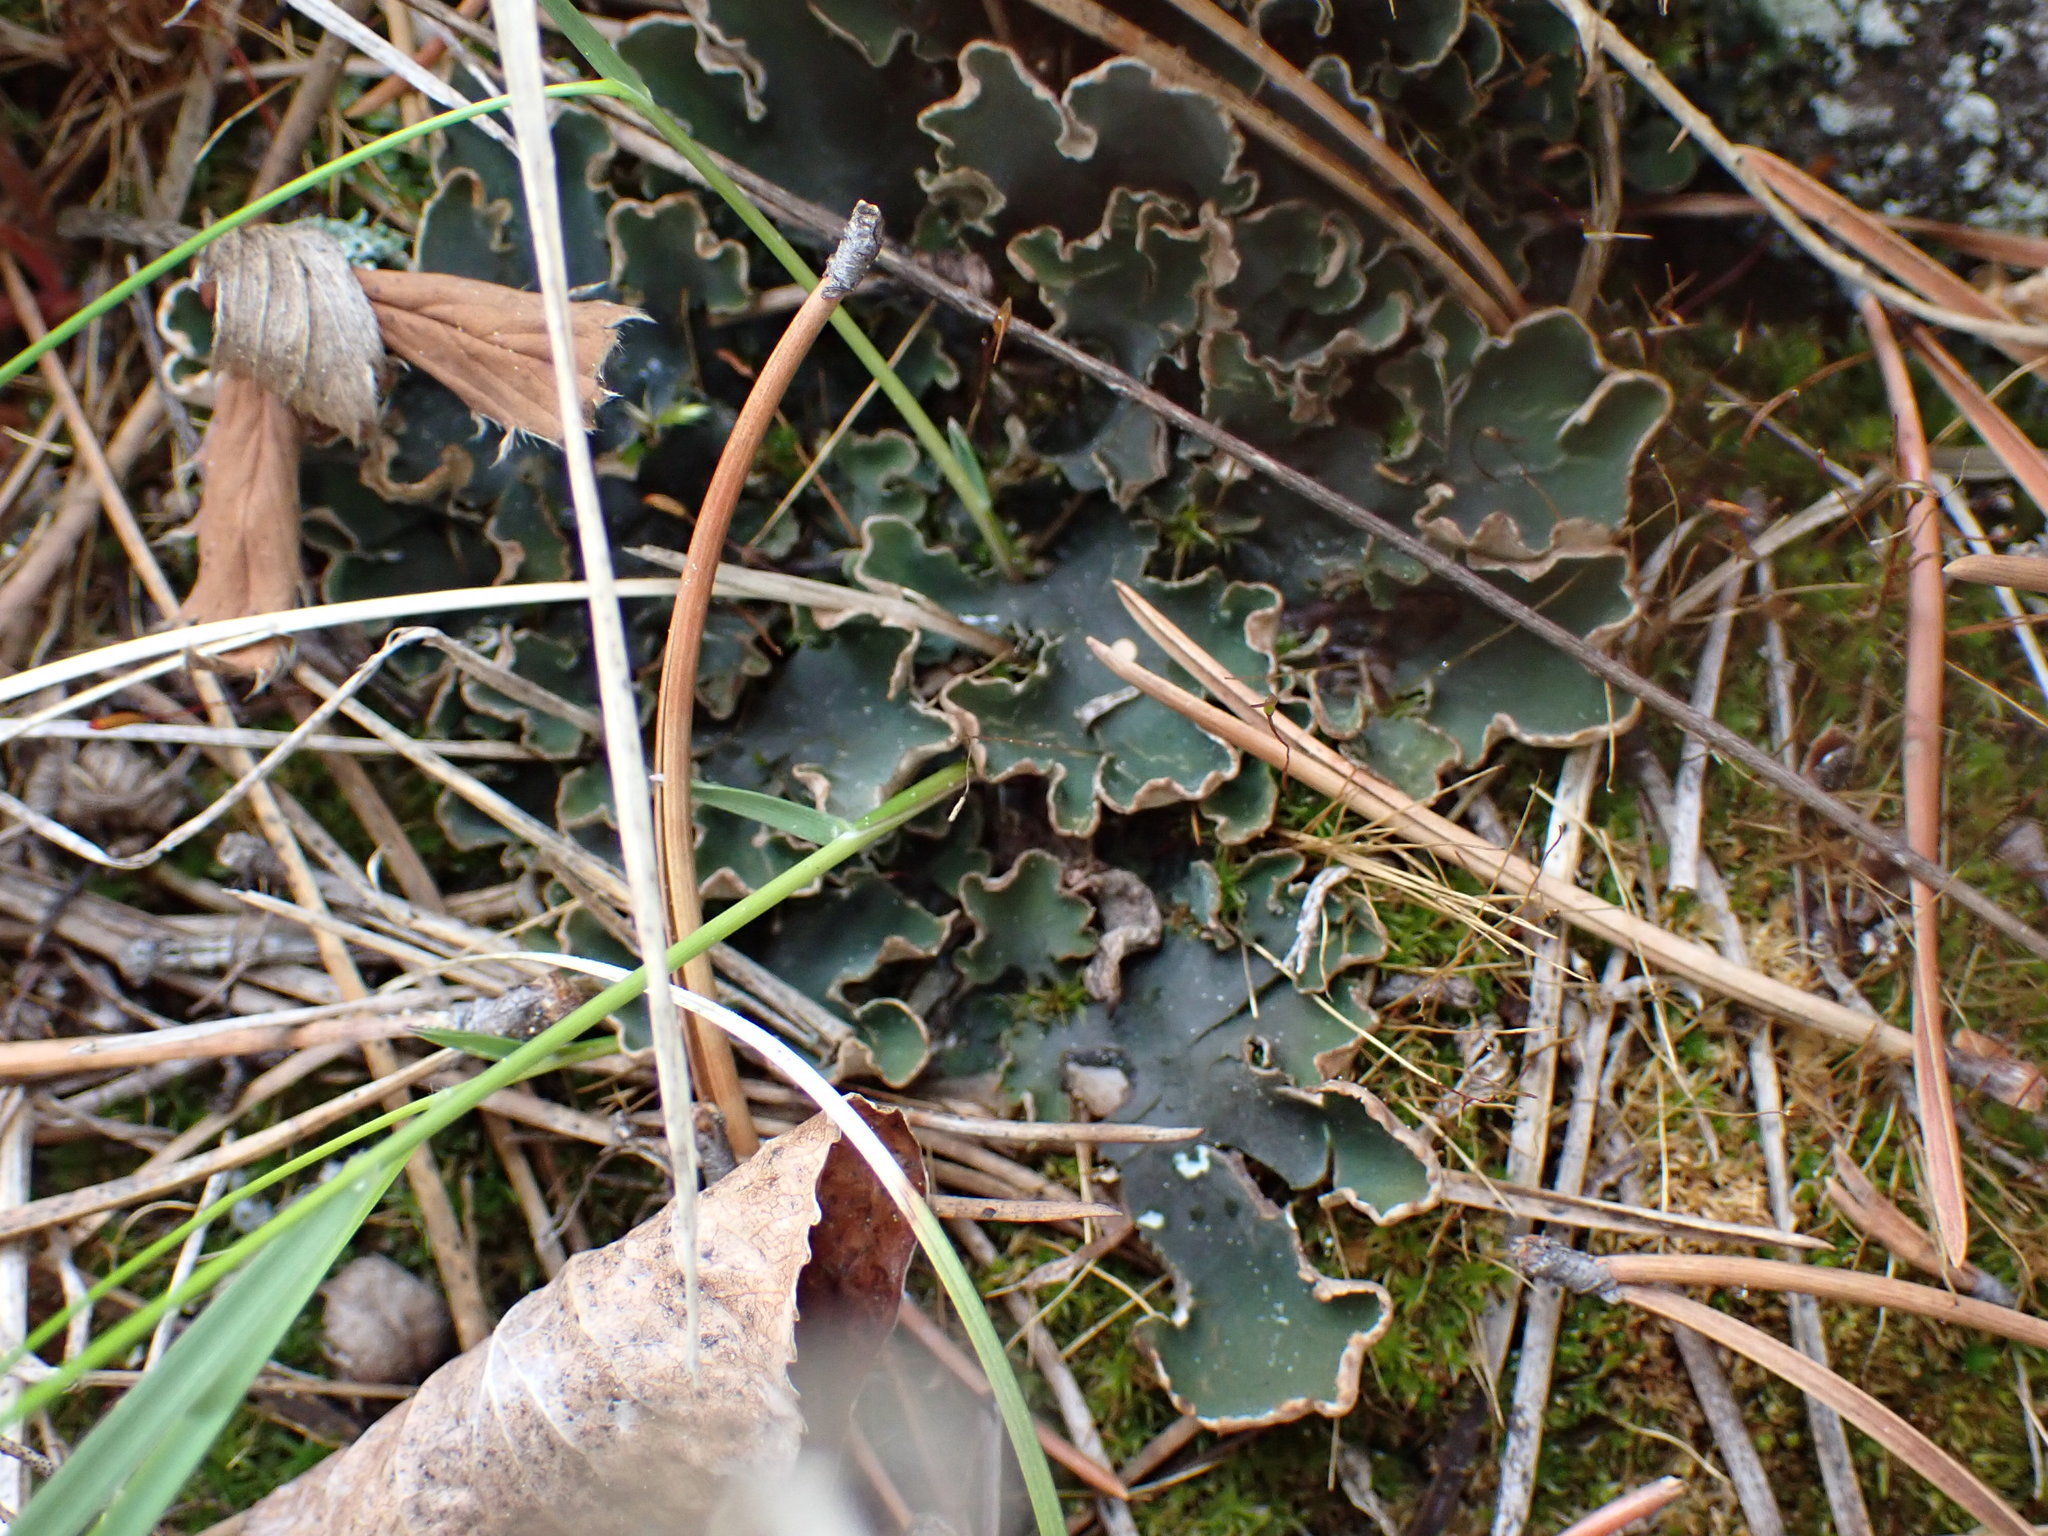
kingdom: Fungi
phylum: Ascomycota
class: Lecanoromycetes
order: Peltigerales
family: Peltigeraceae
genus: Peltigera
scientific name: Peltigera malacea
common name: Matt felt lichen
